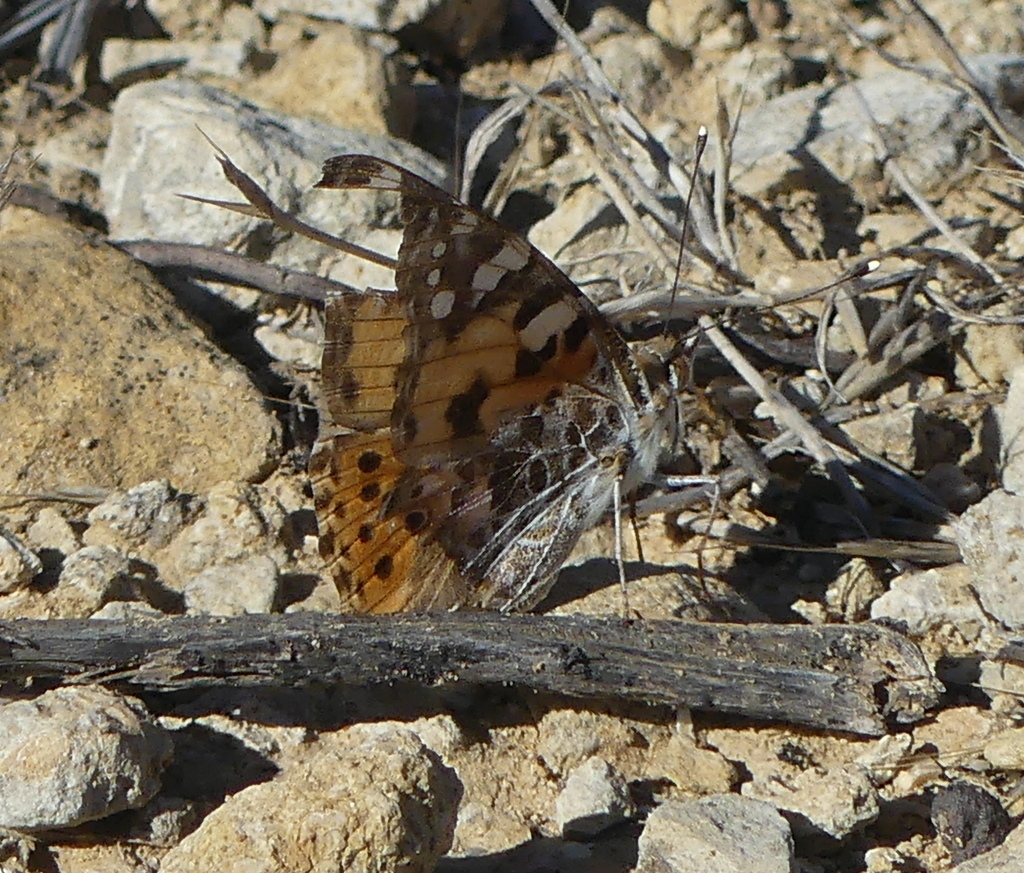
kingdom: Animalia
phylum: Arthropoda
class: Insecta
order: Lepidoptera
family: Nymphalidae
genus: Vanessa
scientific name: Vanessa cardui
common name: Painted lady
